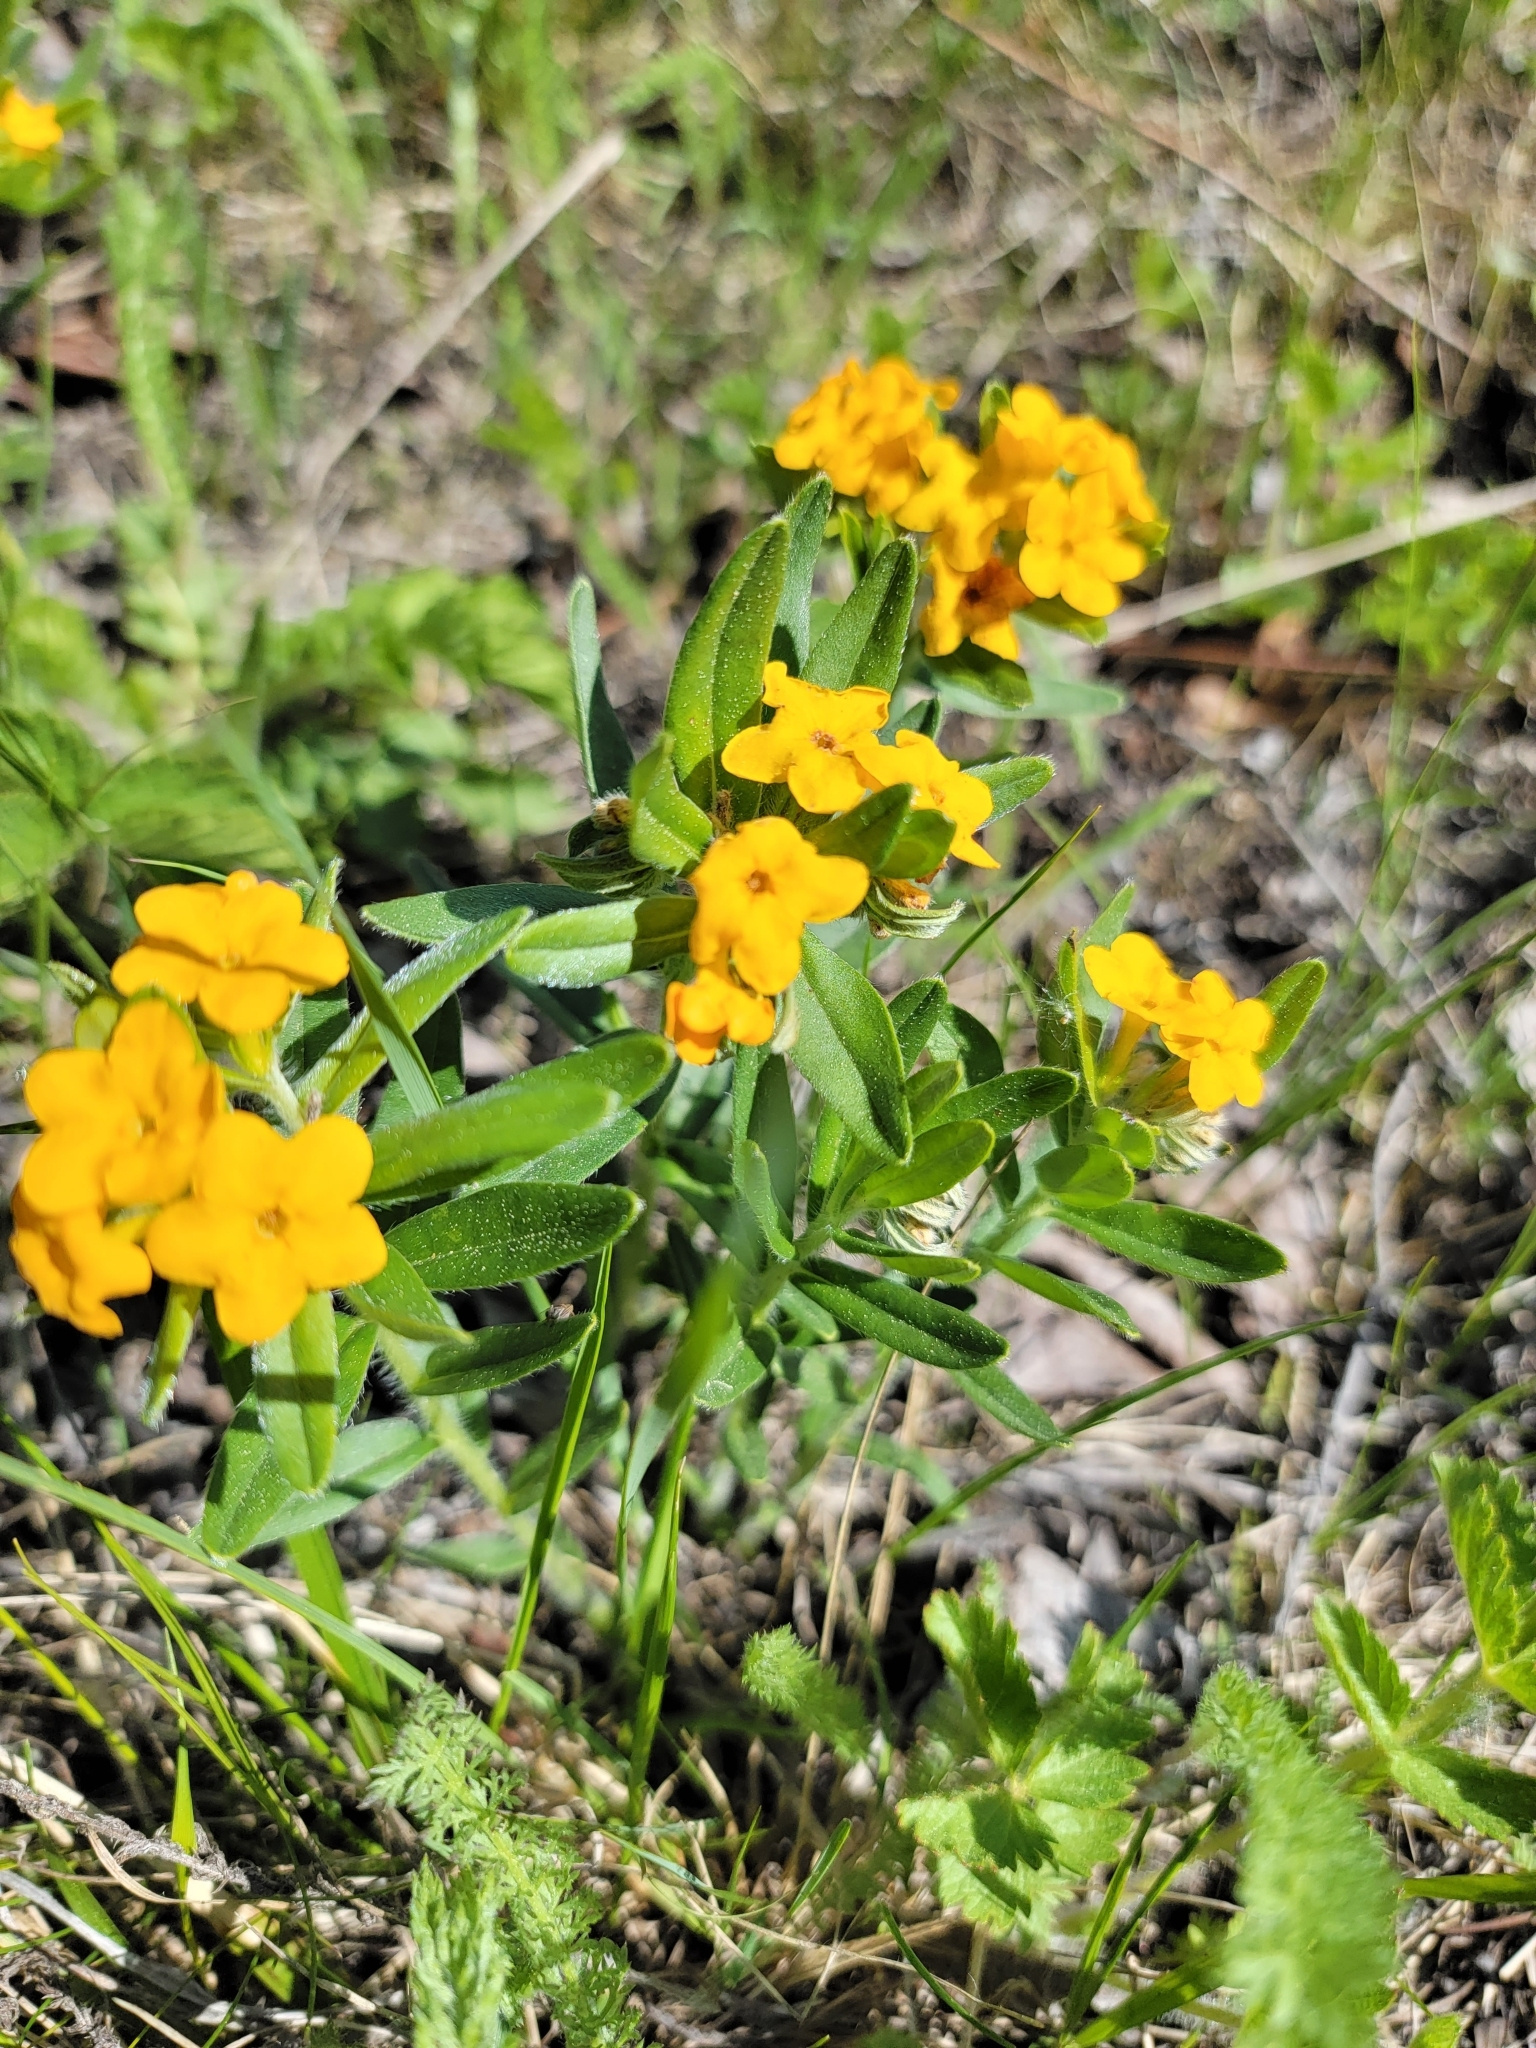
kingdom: Plantae
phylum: Tracheophyta
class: Magnoliopsida
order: Boraginales
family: Boraginaceae
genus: Lithospermum
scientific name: Lithospermum canescens
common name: Hoary puccoon
